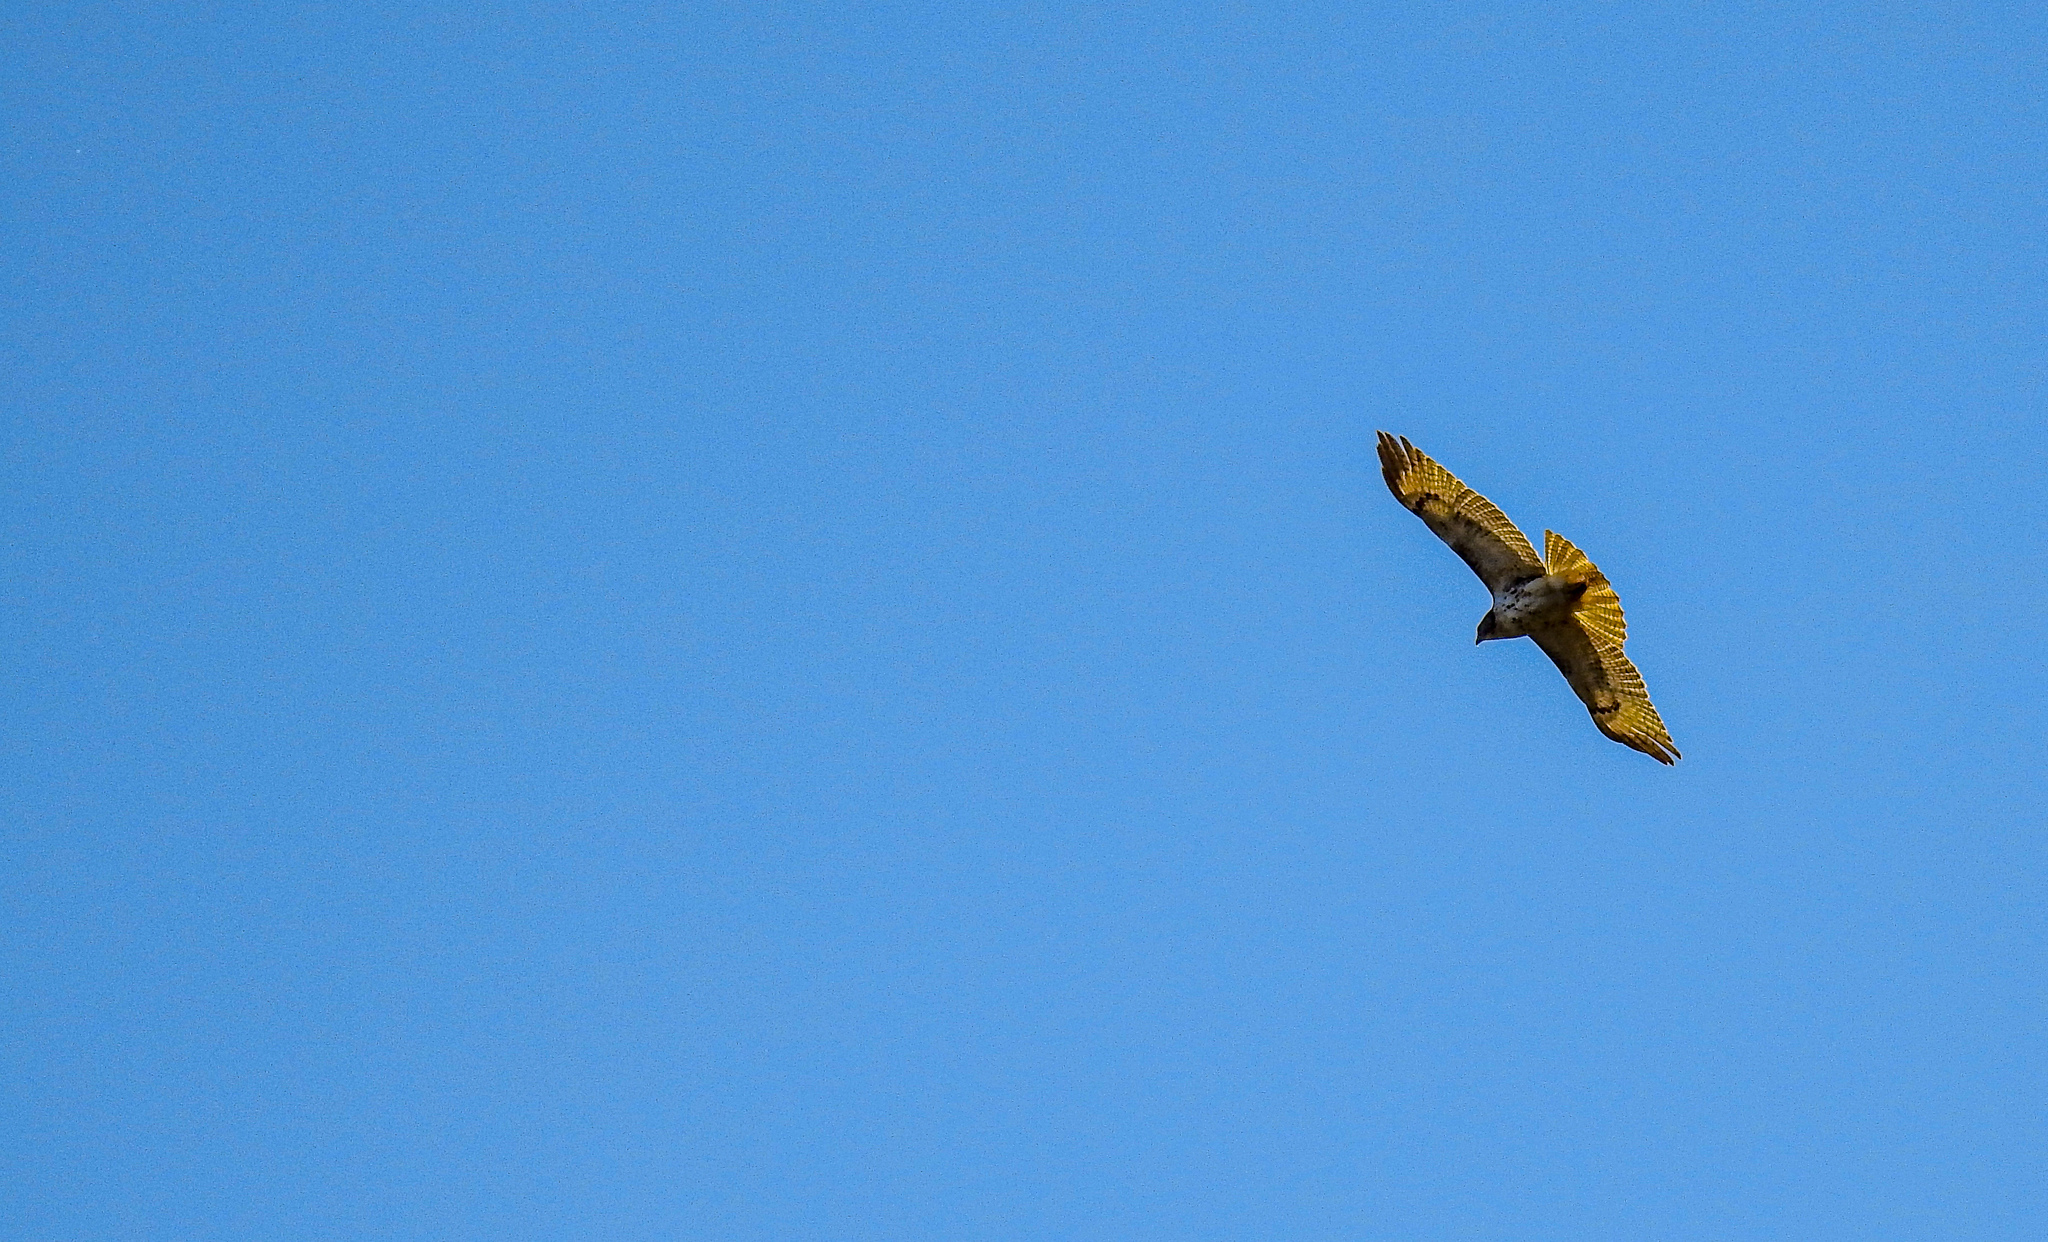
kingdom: Animalia
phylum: Chordata
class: Aves
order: Accipitriformes
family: Accipitridae
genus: Buteo
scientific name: Buteo jamaicensis
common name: Red-tailed hawk
